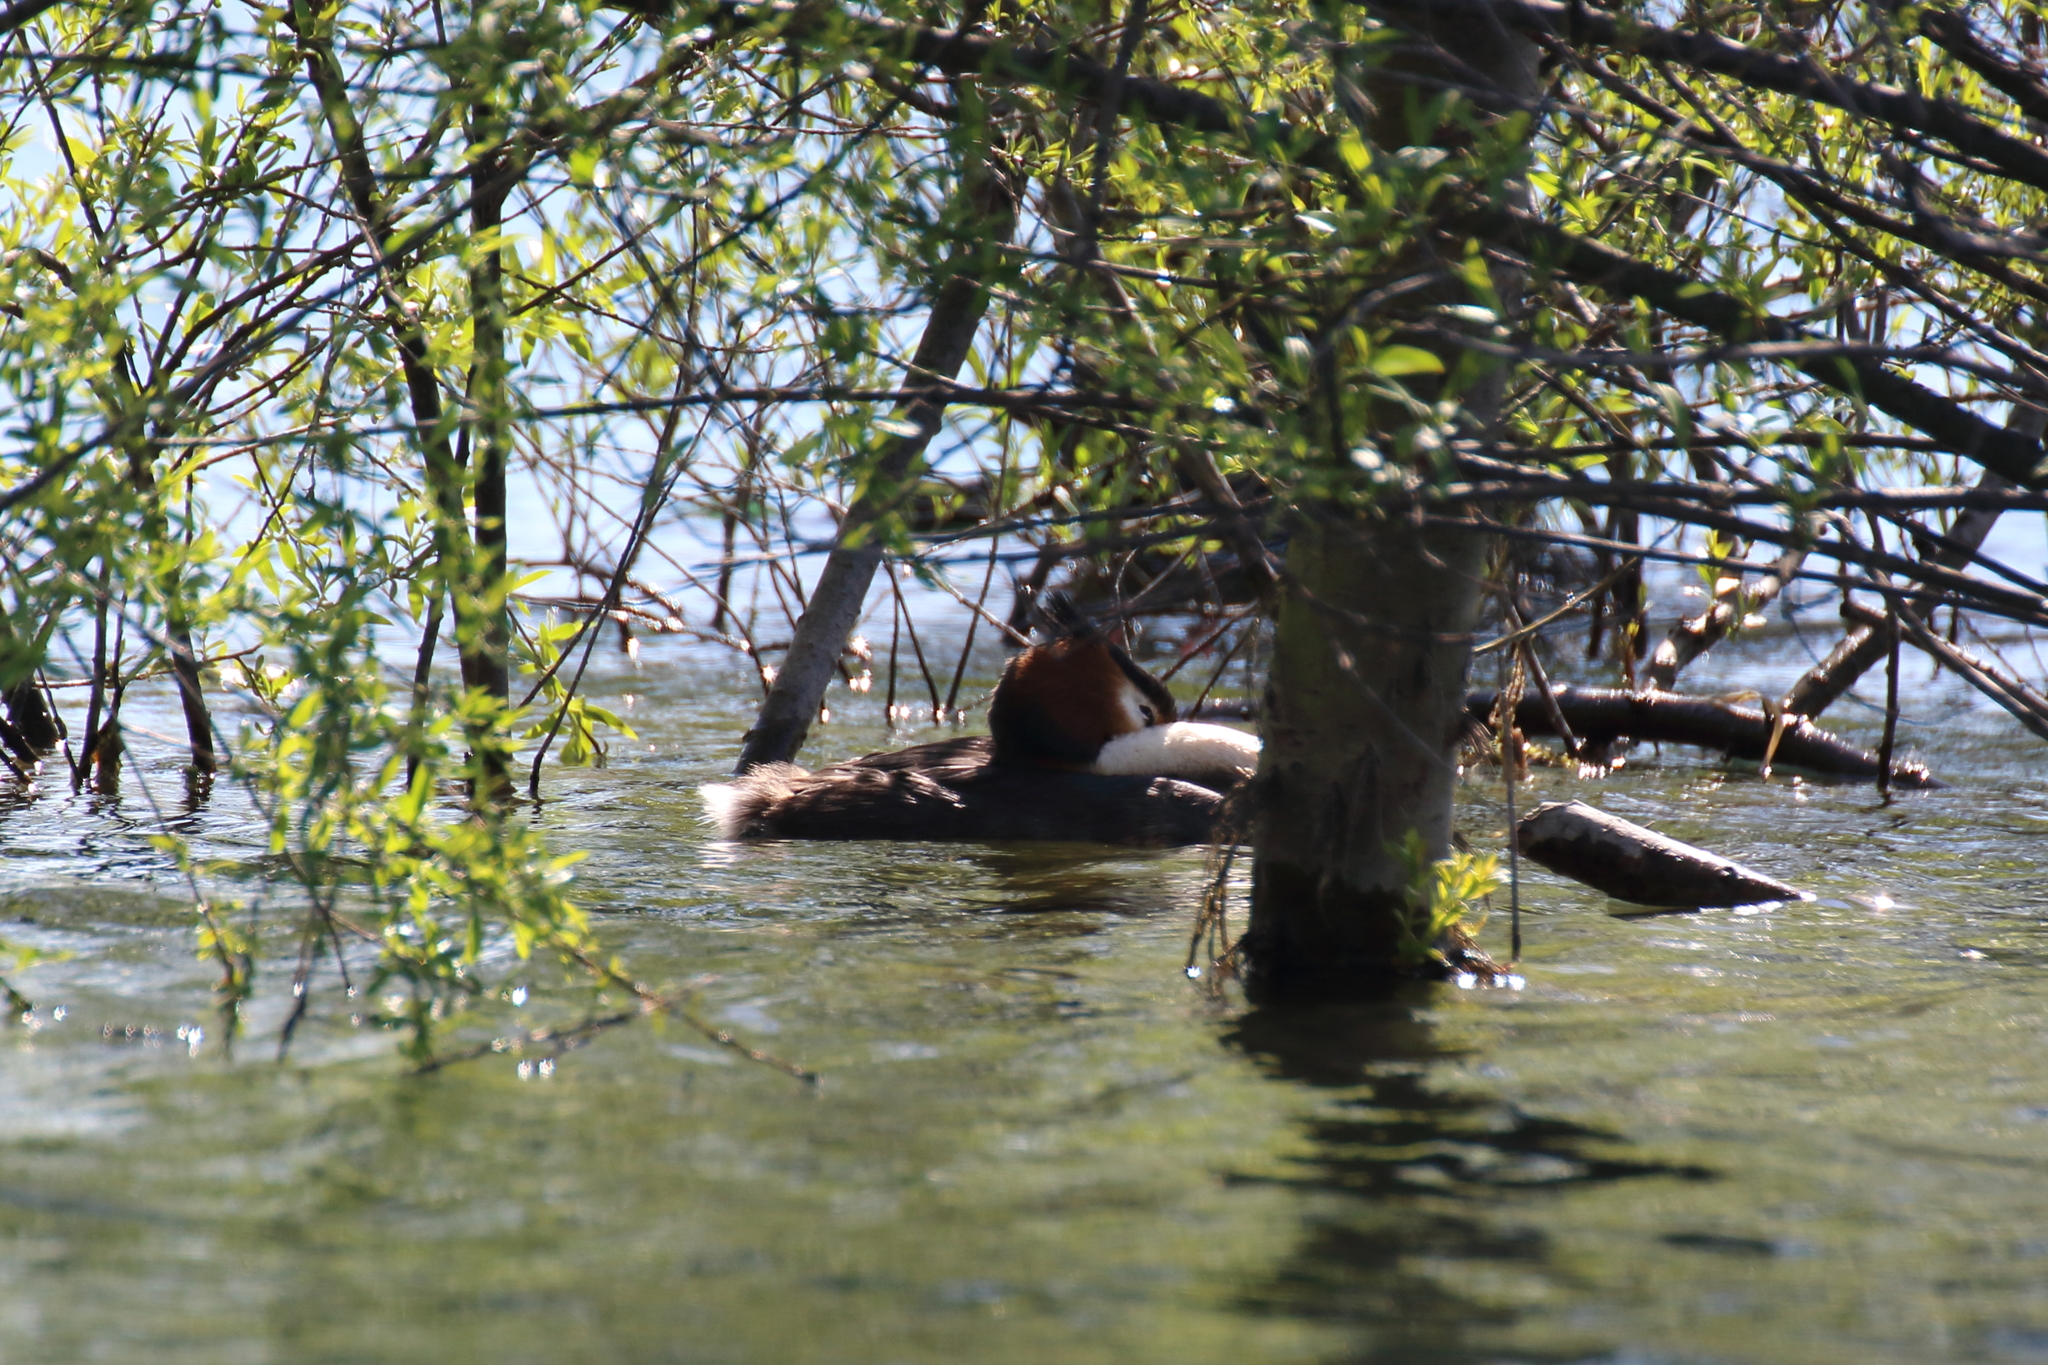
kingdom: Animalia
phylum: Chordata
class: Aves
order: Podicipediformes
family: Podicipedidae
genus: Podiceps
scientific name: Podiceps cristatus
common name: Great crested grebe
